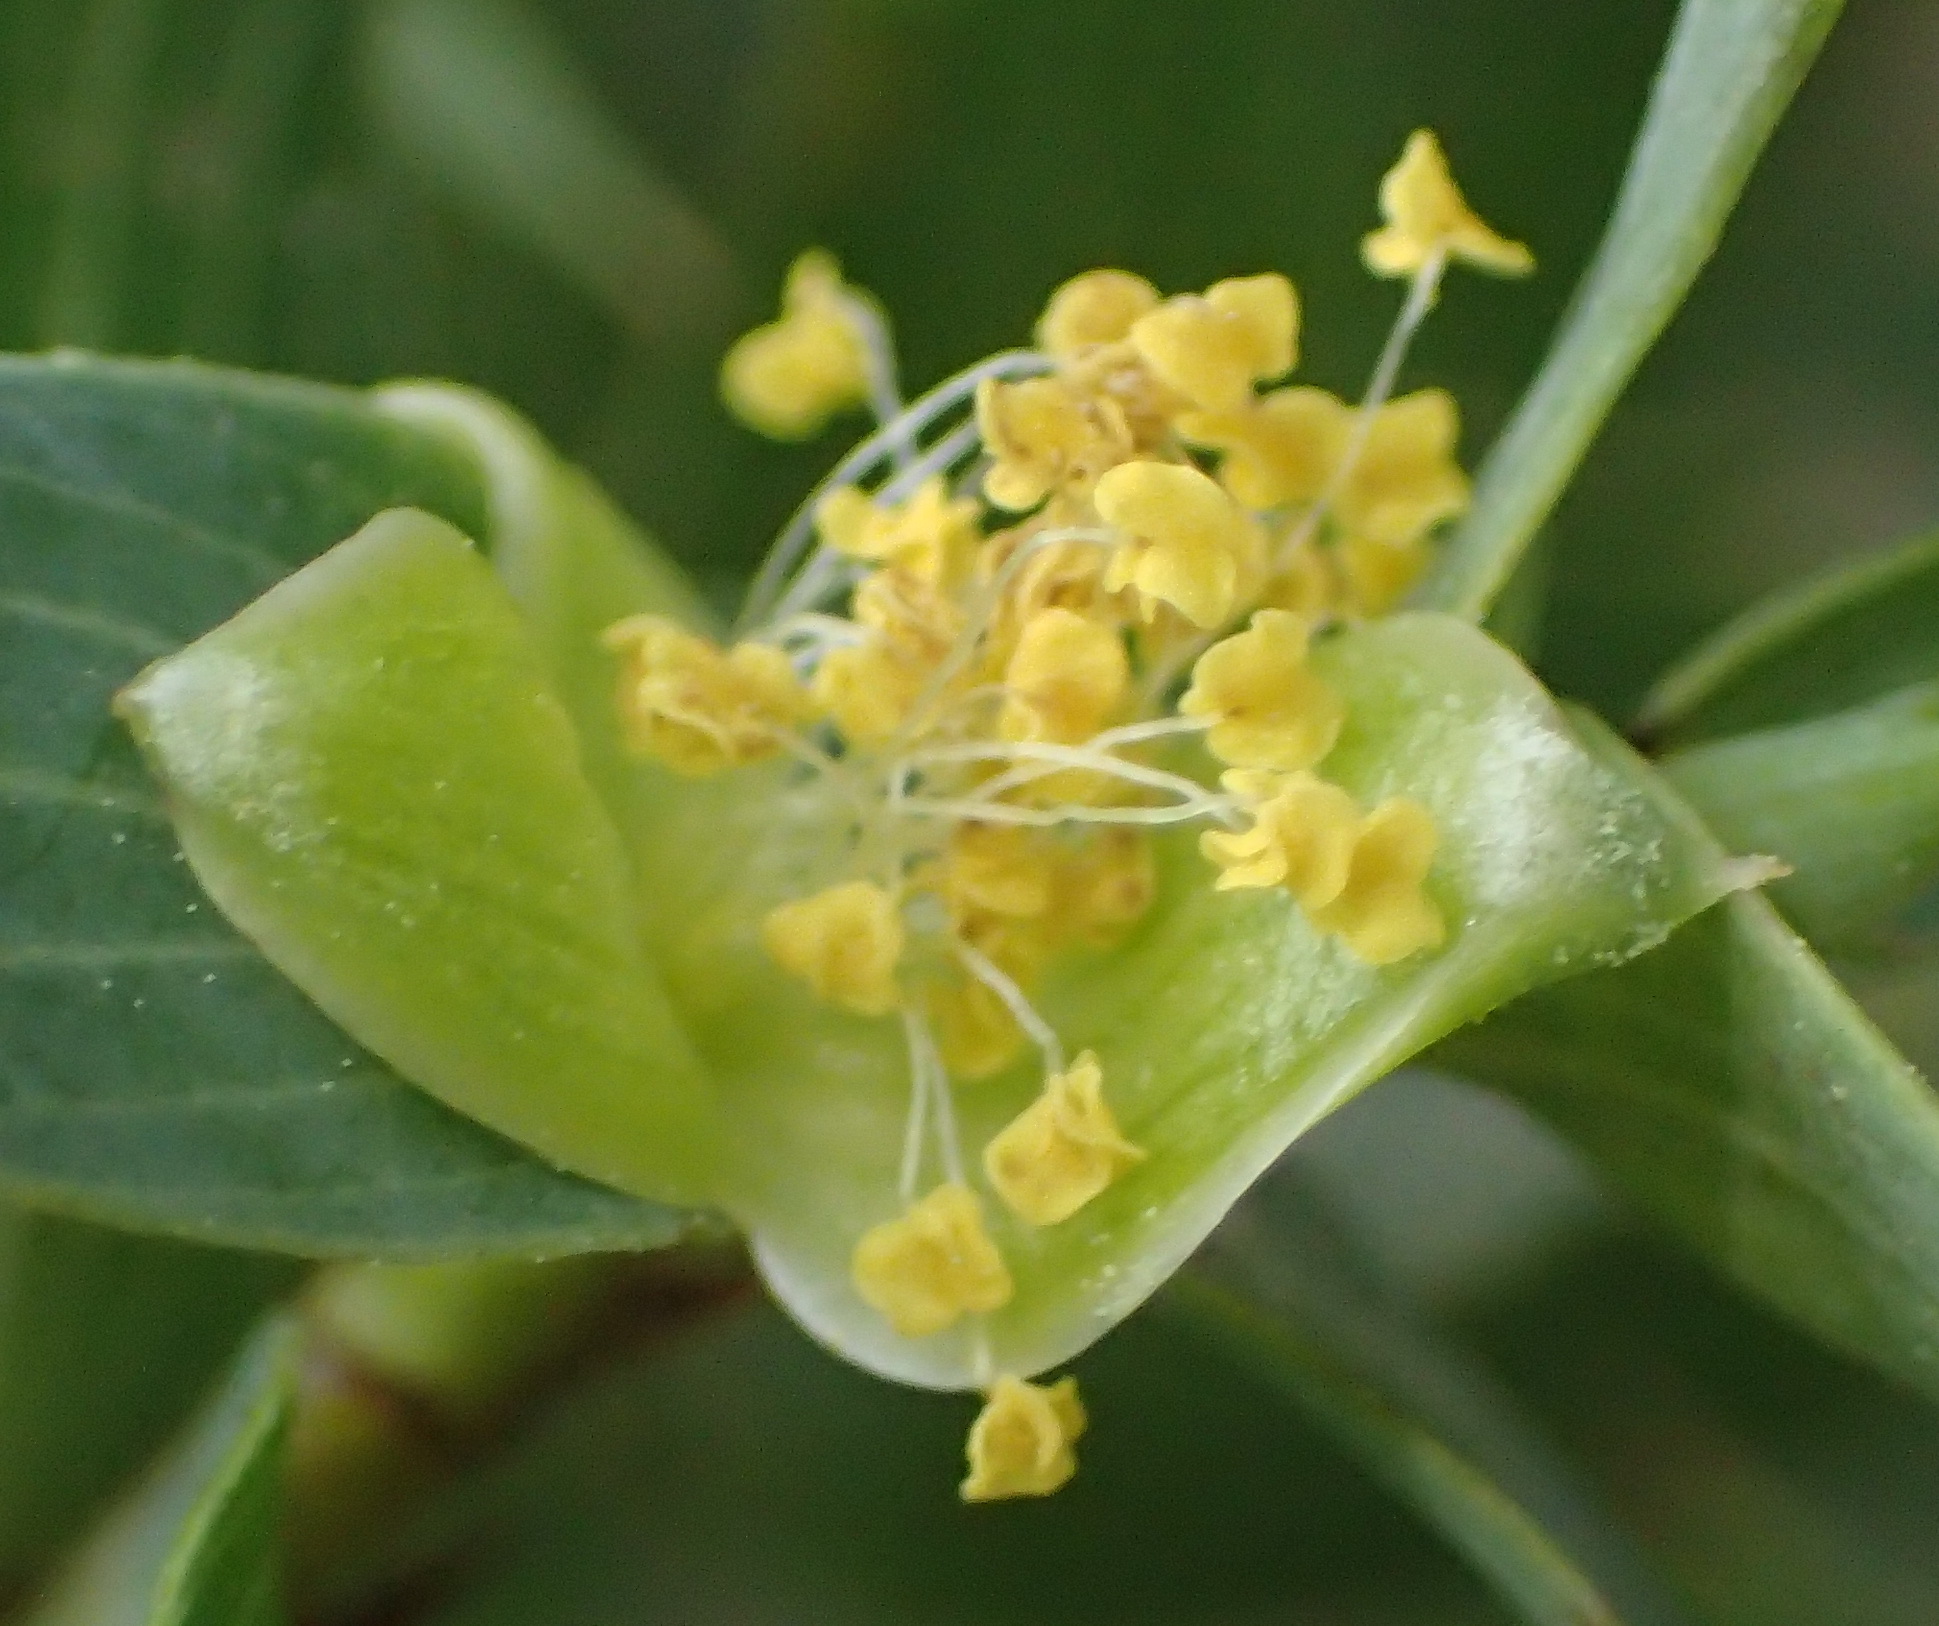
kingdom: Plantae
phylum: Tracheophyta
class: Magnoliopsida
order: Rosales
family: Rosaceae
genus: Cliffortia
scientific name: Cliffortia ilicifolia
